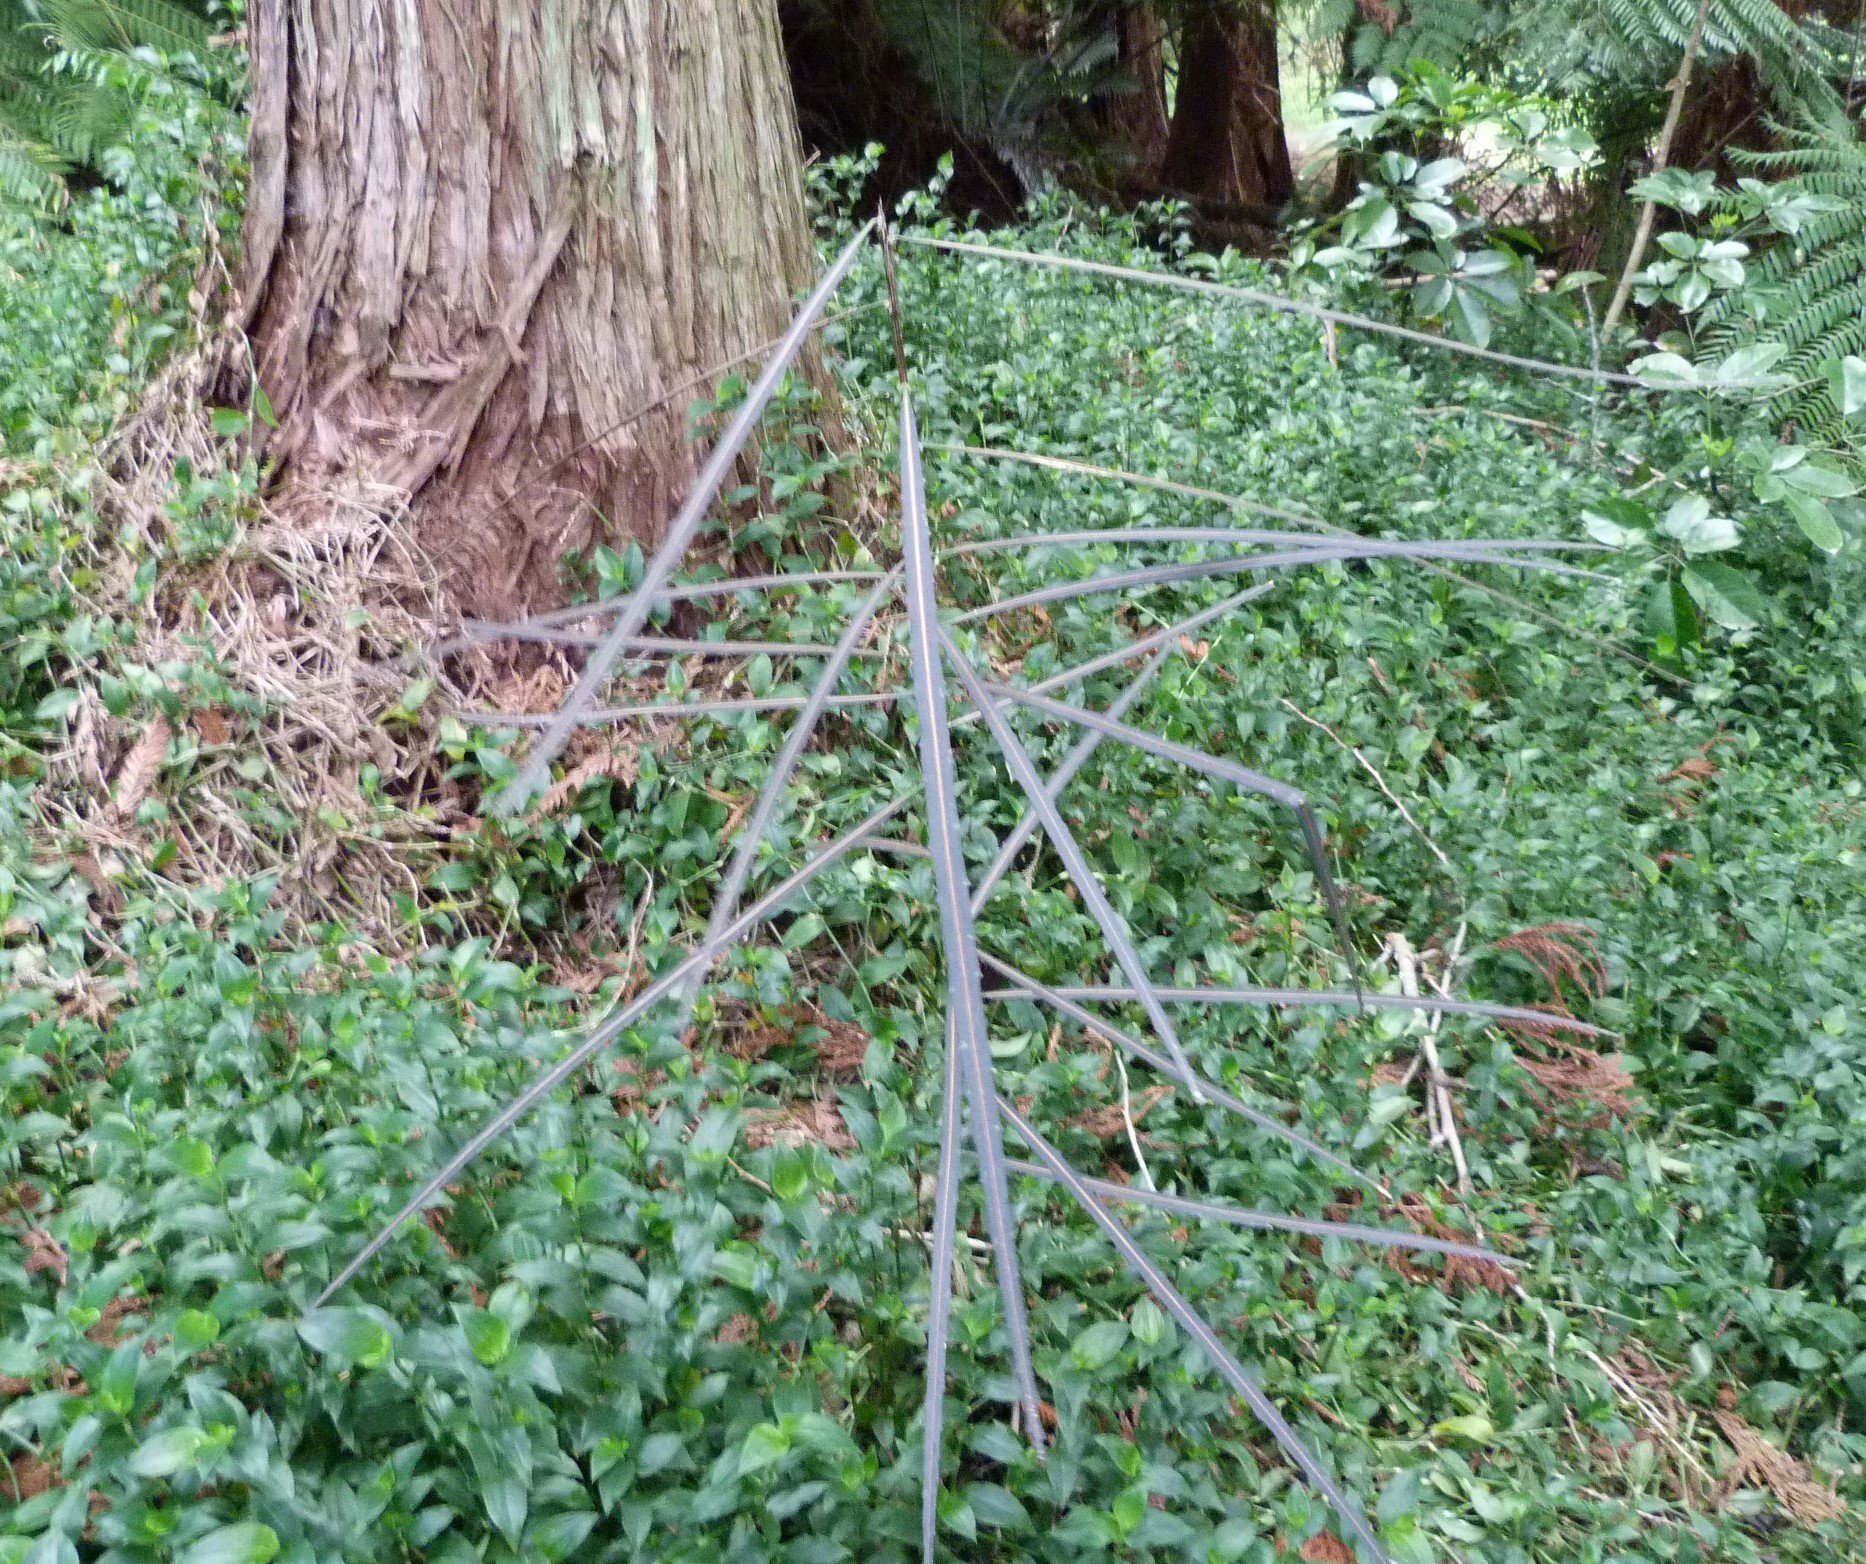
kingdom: Plantae
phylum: Tracheophyta
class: Magnoliopsida
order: Apiales
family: Araliaceae
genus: Pseudopanax
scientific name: Pseudopanax crassifolius
